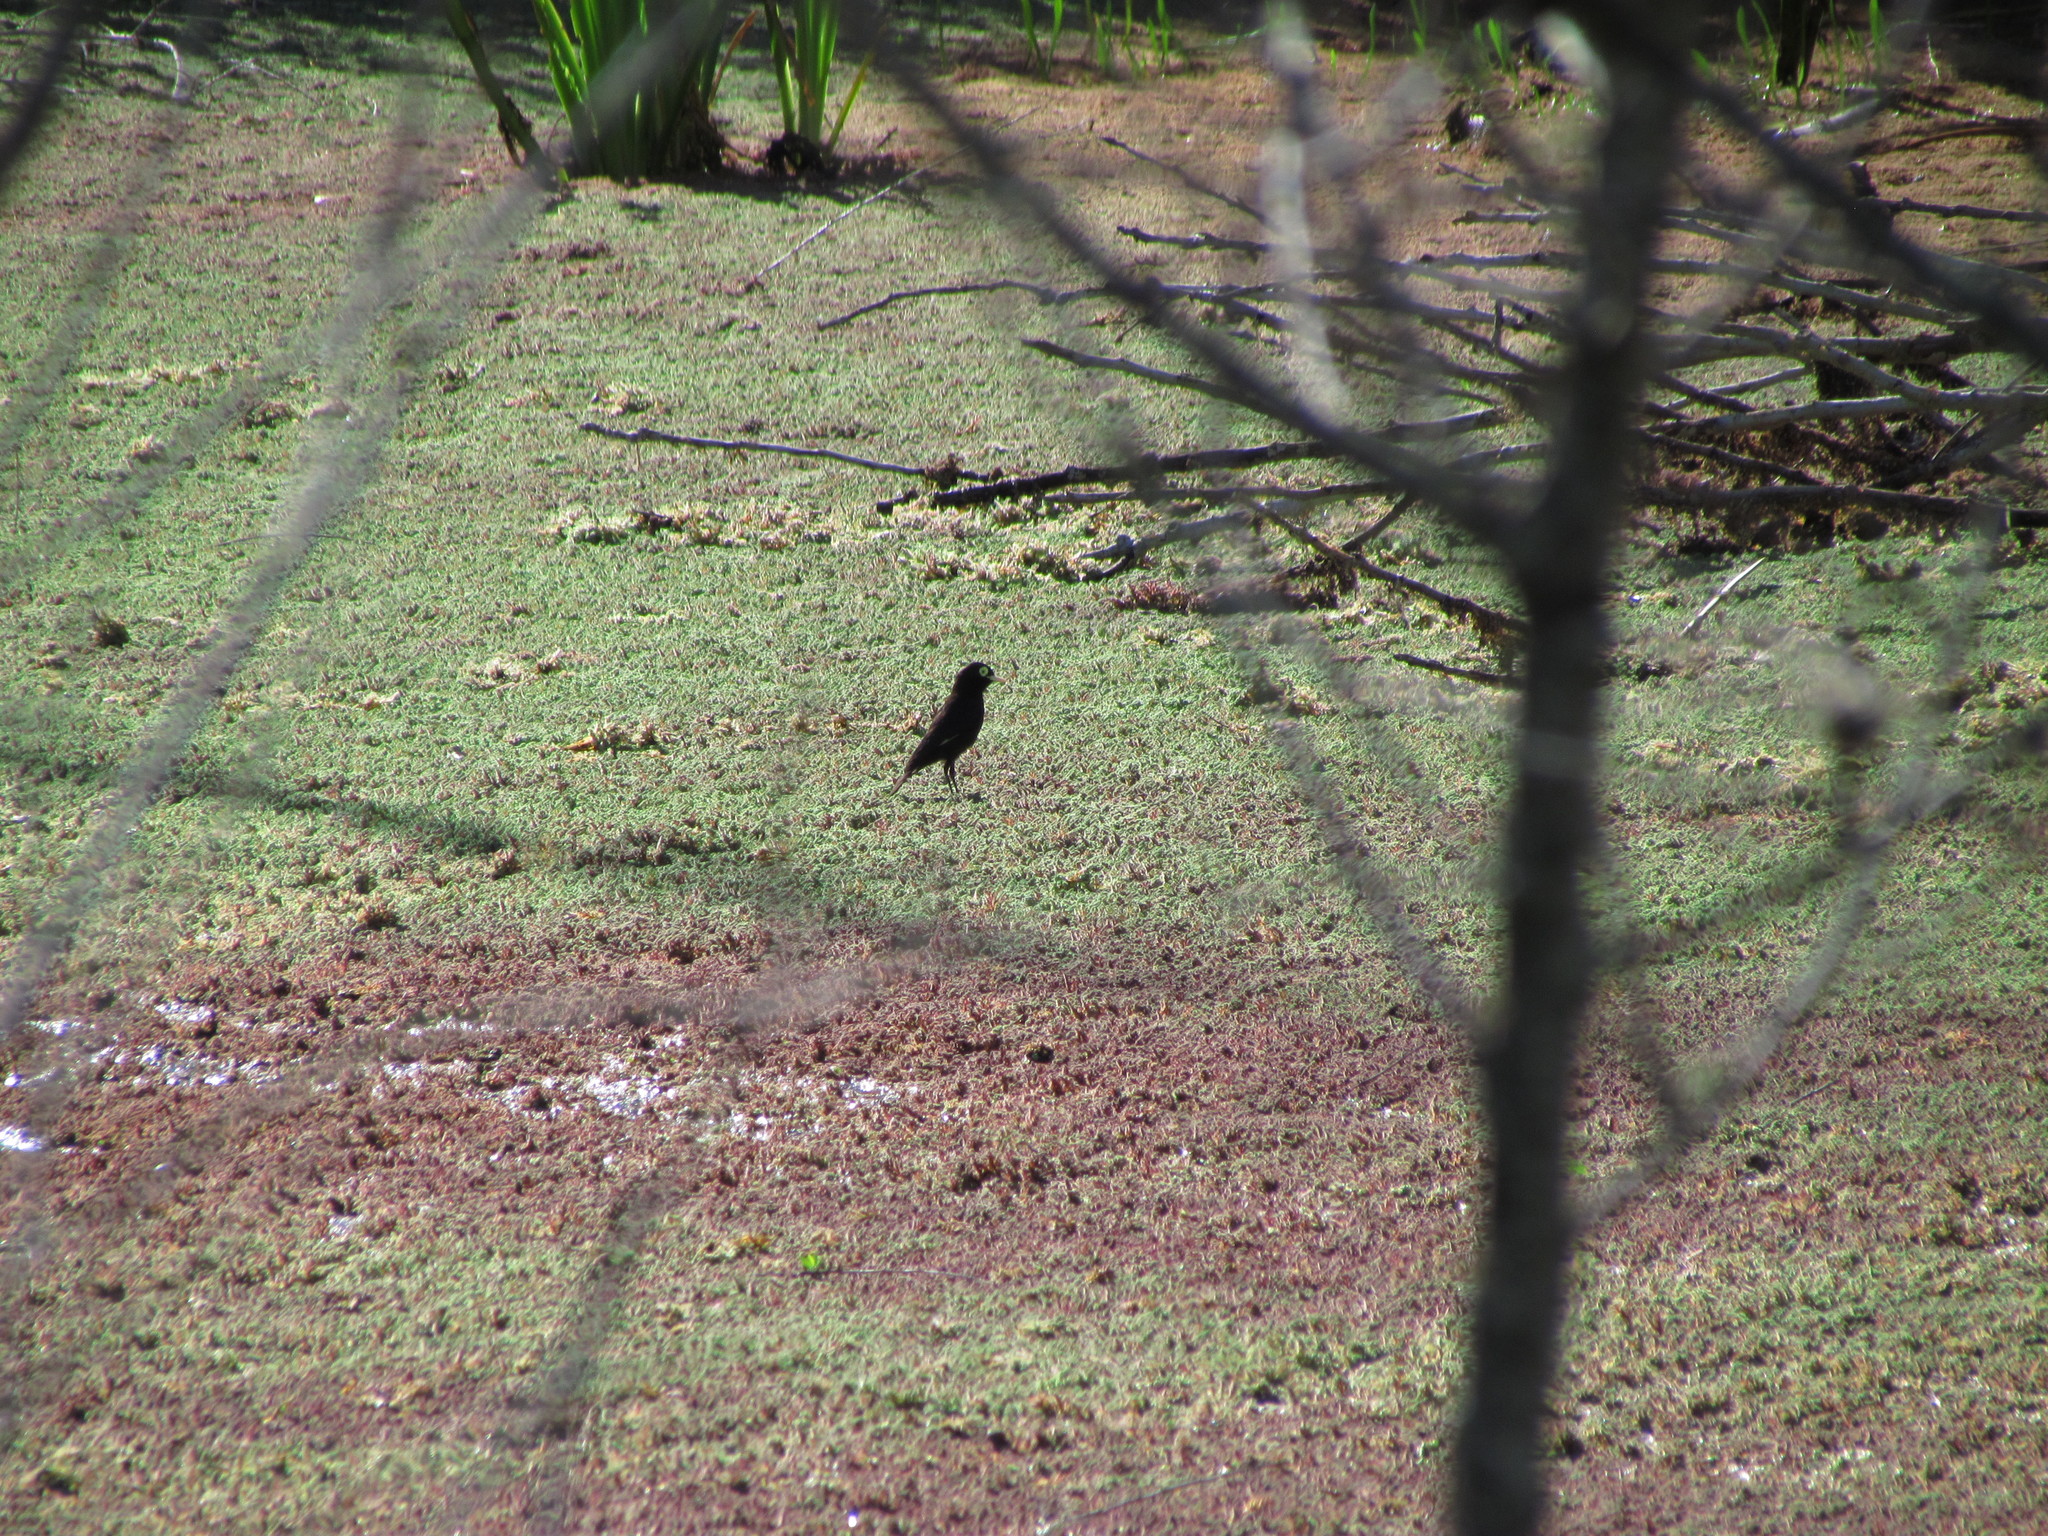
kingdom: Animalia
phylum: Chordata
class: Aves
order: Passeriformes
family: Tyrannidae
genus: Hymenops
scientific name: Hymenops perspicillatus
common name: Spectacled tyrant
